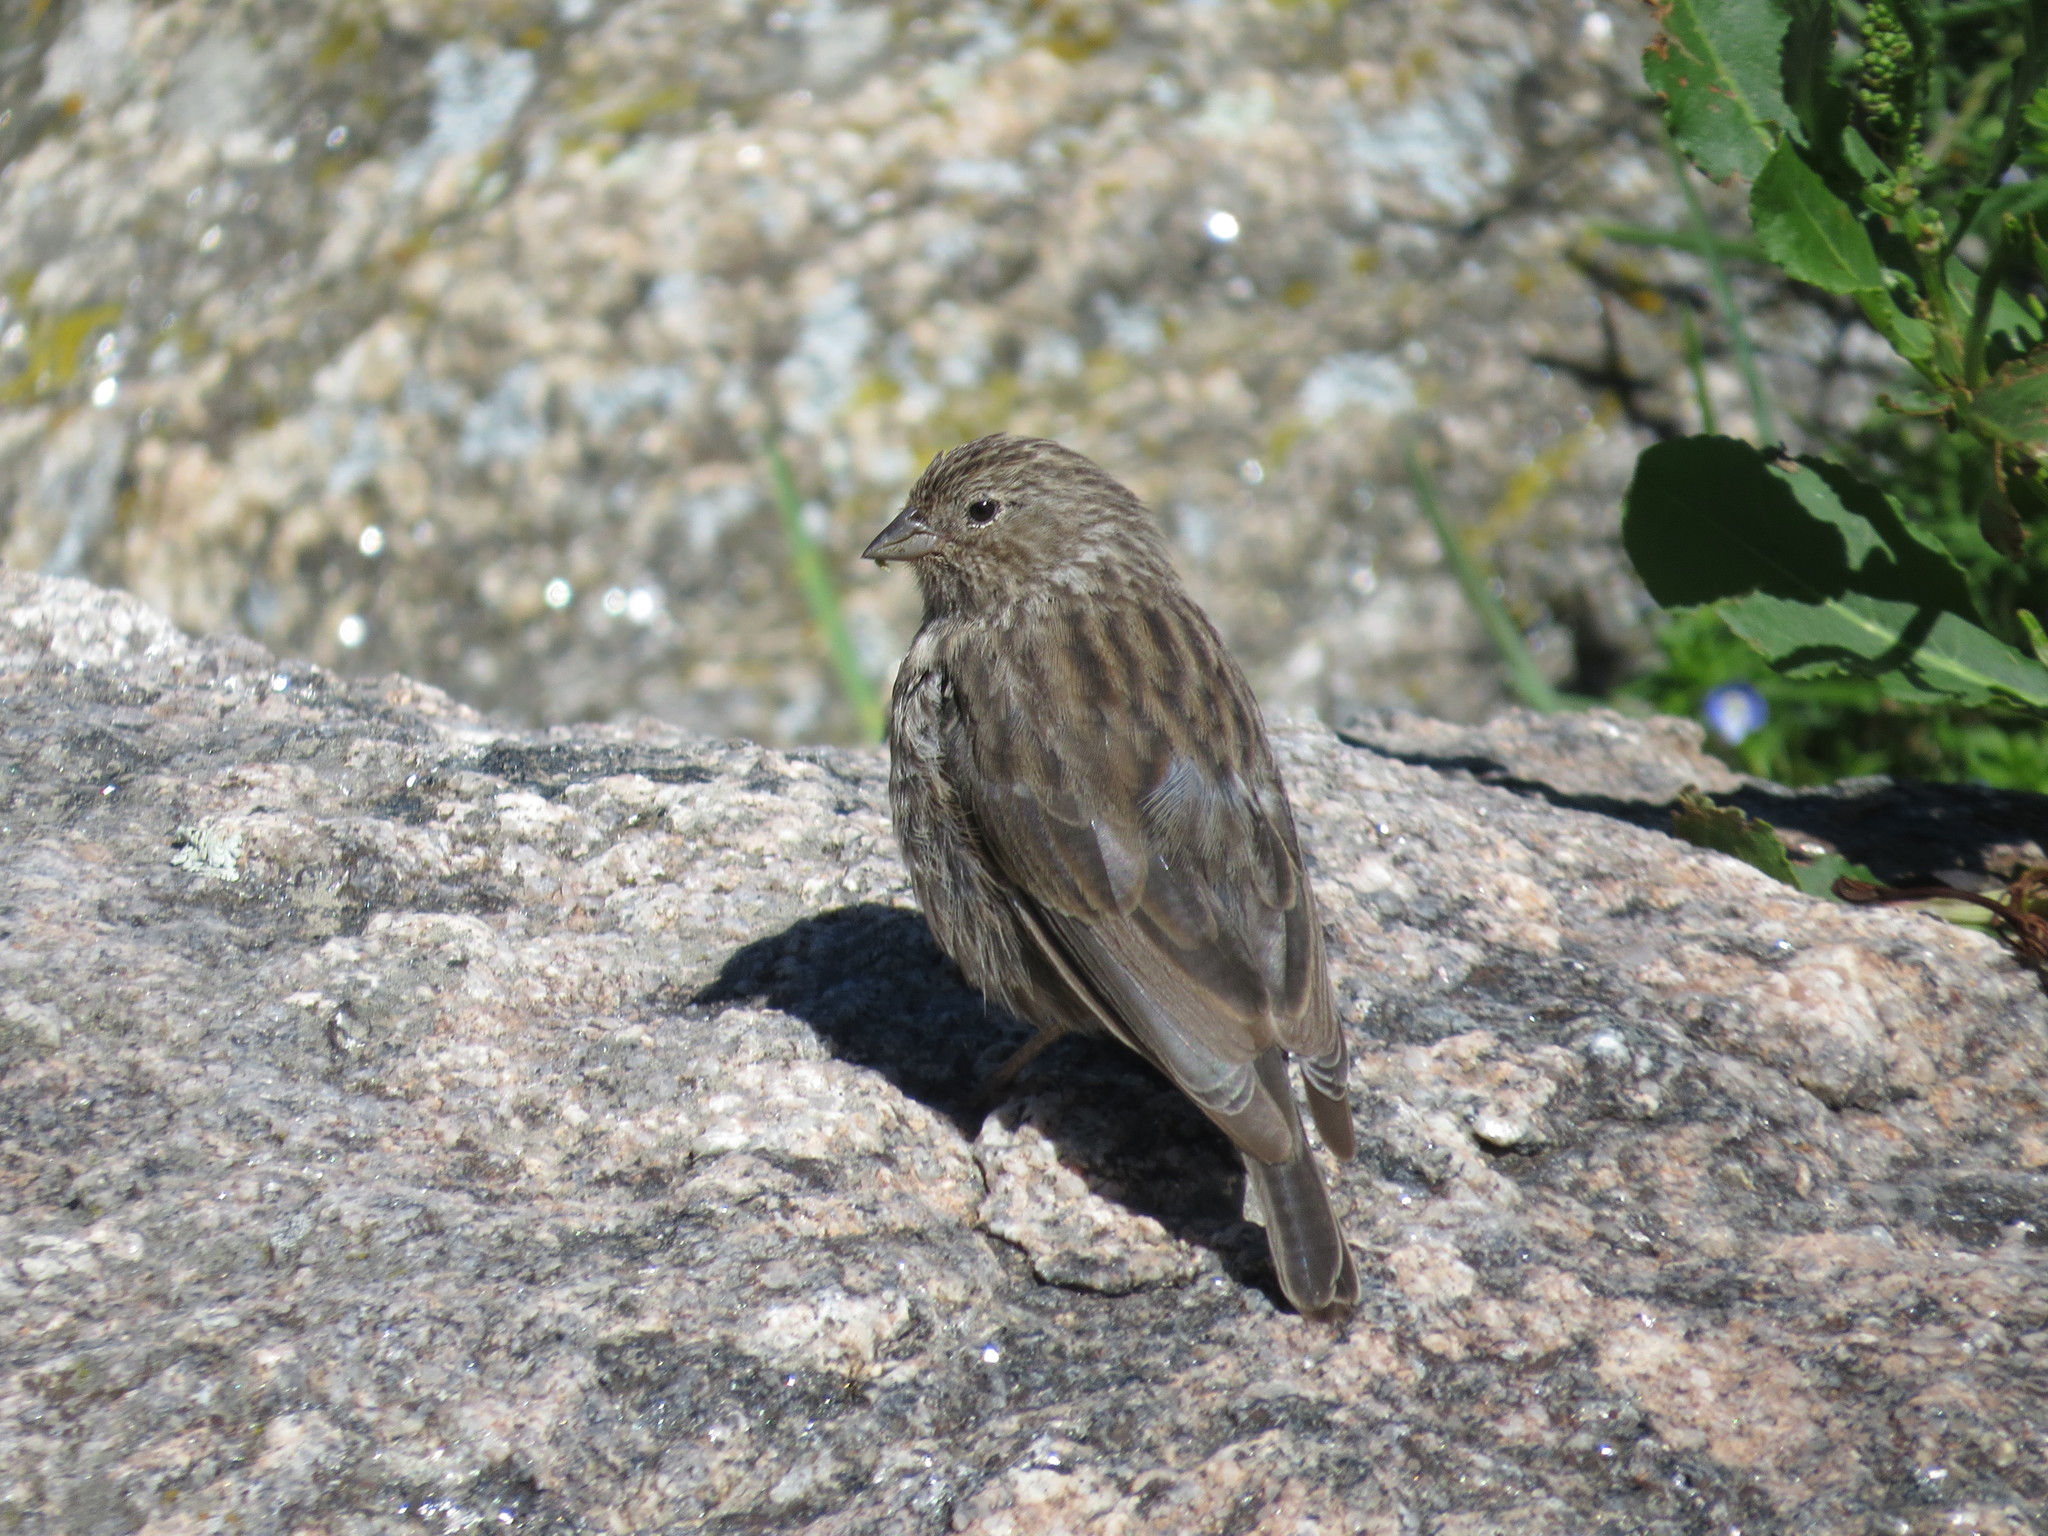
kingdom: Animalia
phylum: Chordata
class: Aves
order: Passeriformes
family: Thraupidae
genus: Geospizopsis
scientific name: Geospizopsis unicolor
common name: Plumbeous sierra-finch
